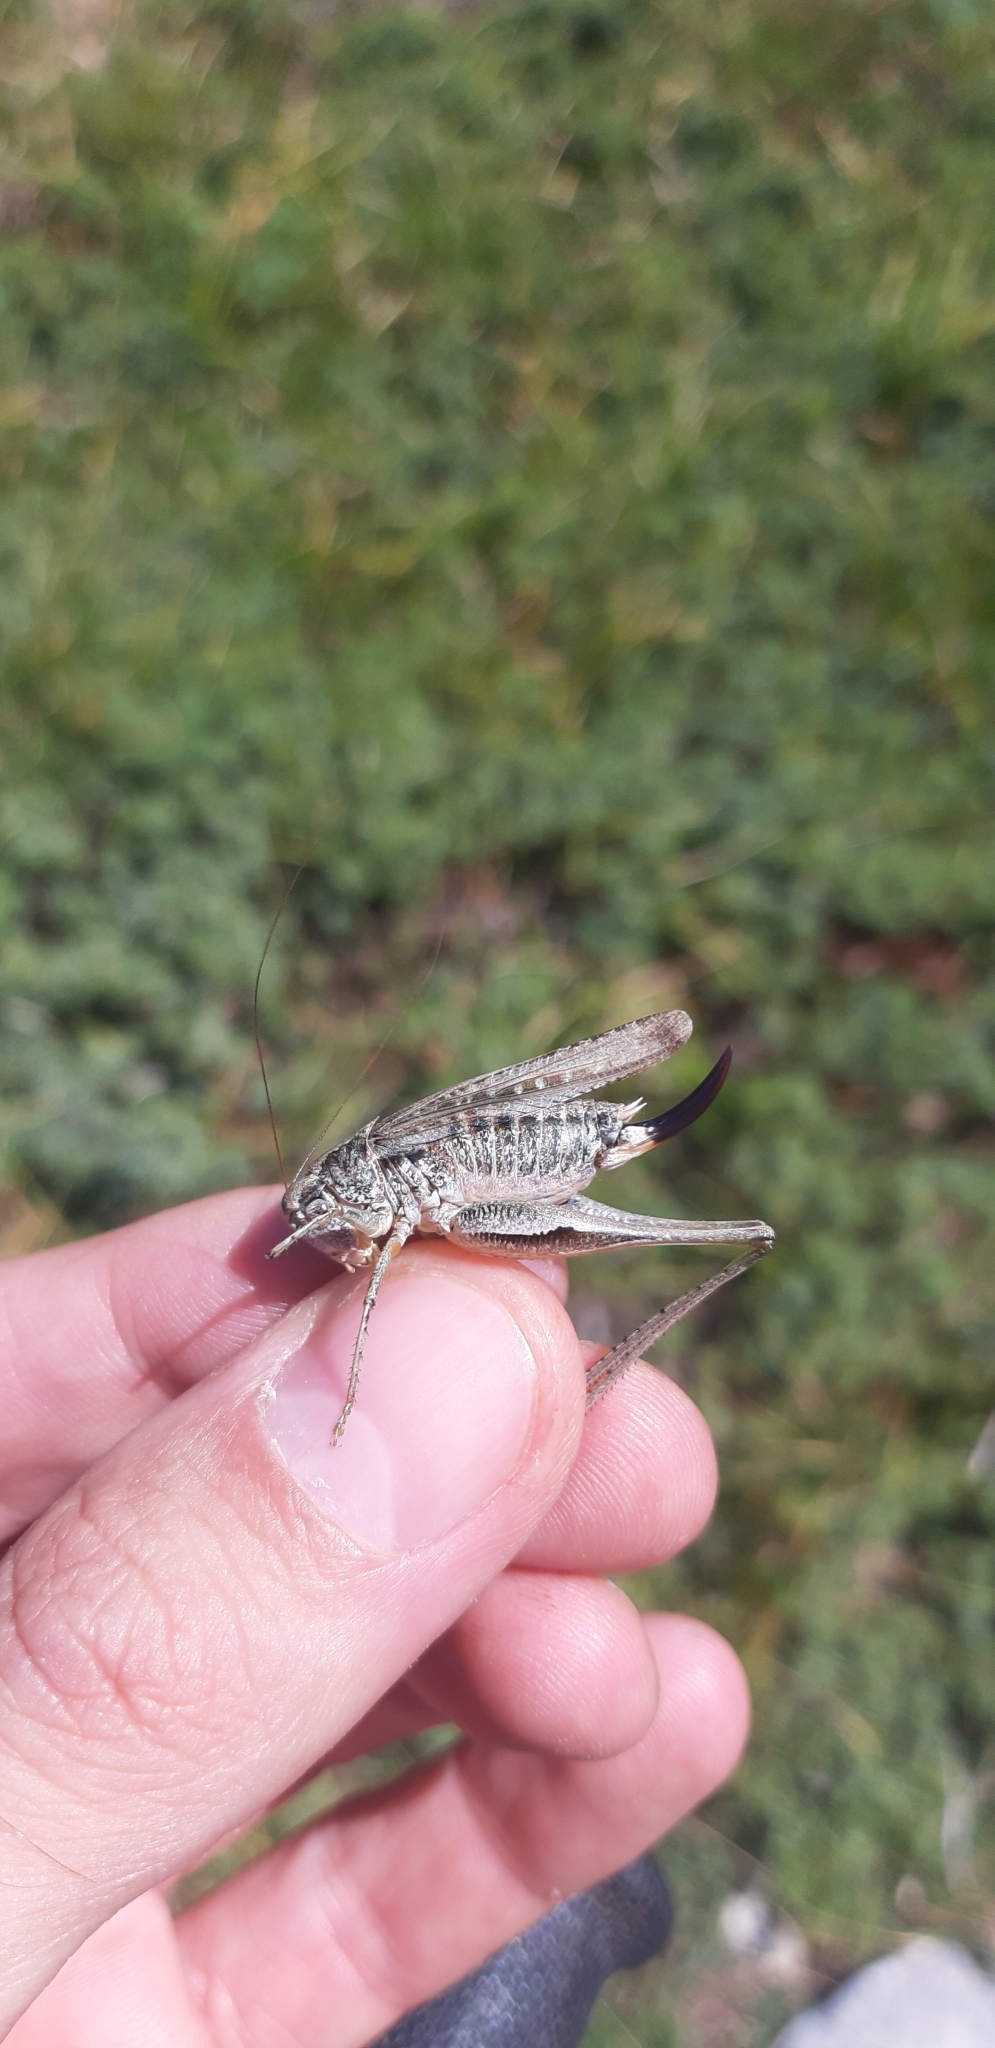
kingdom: Animalia
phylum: Arthropoda
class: Insecta
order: Orthoptera
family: Tettigoniidae
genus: Platycleis
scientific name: Platycleis grisea
